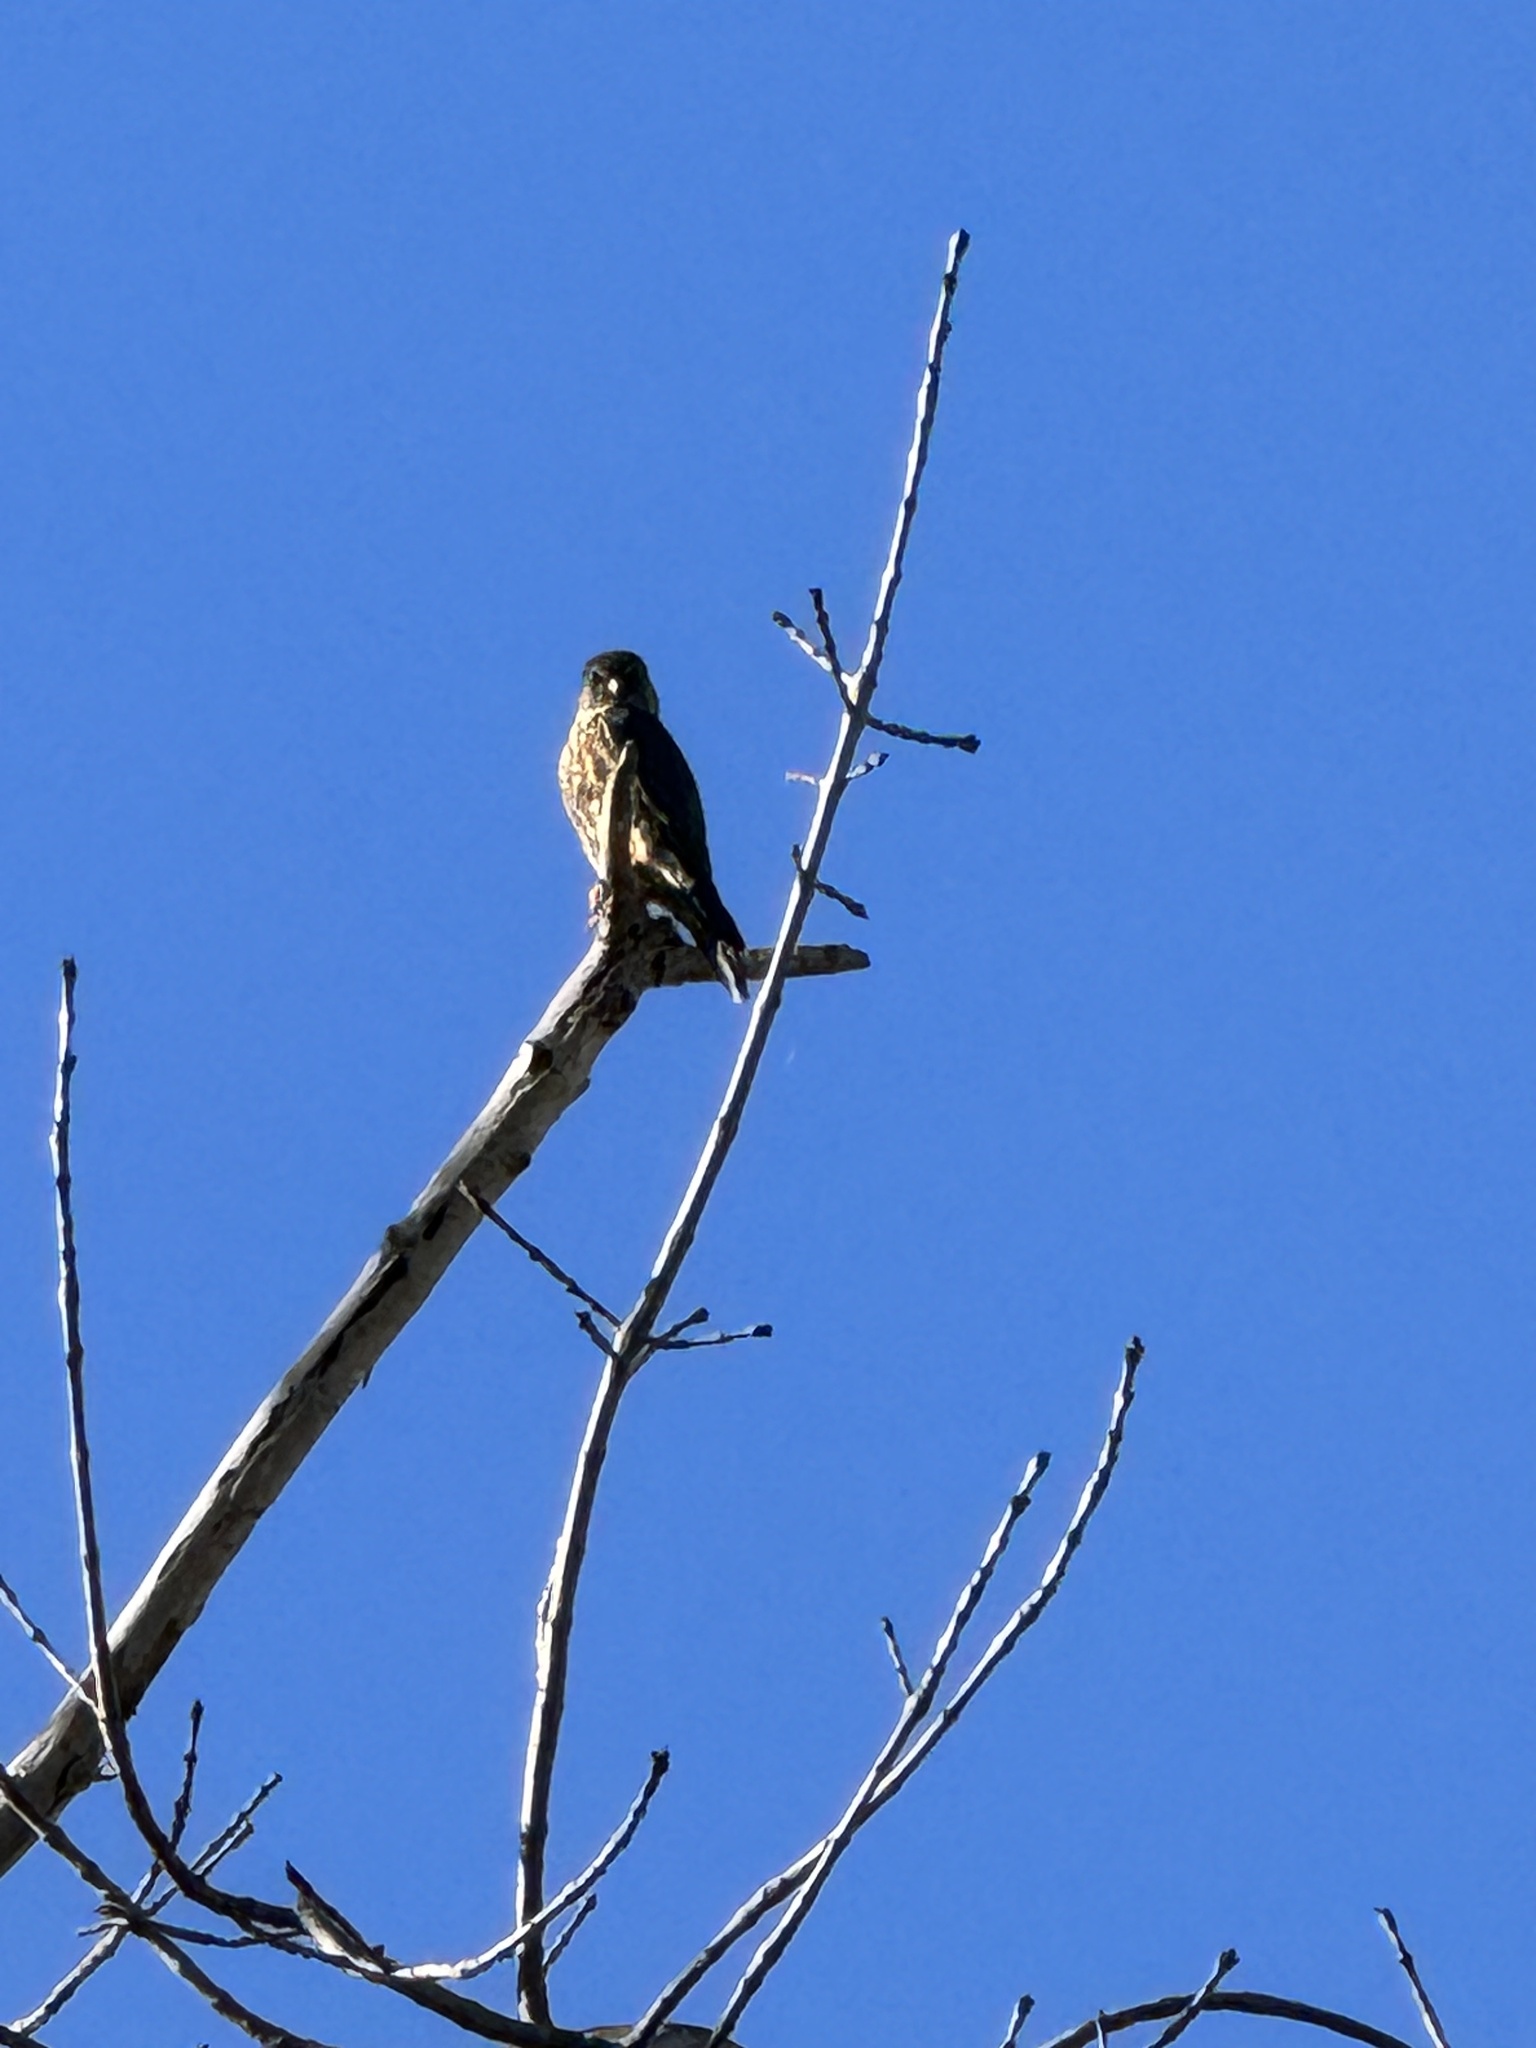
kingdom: Animalia
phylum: Chordata
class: Aves
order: Falconiformes
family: Falconidae
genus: Falco
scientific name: Falco columbarius
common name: Merlin
